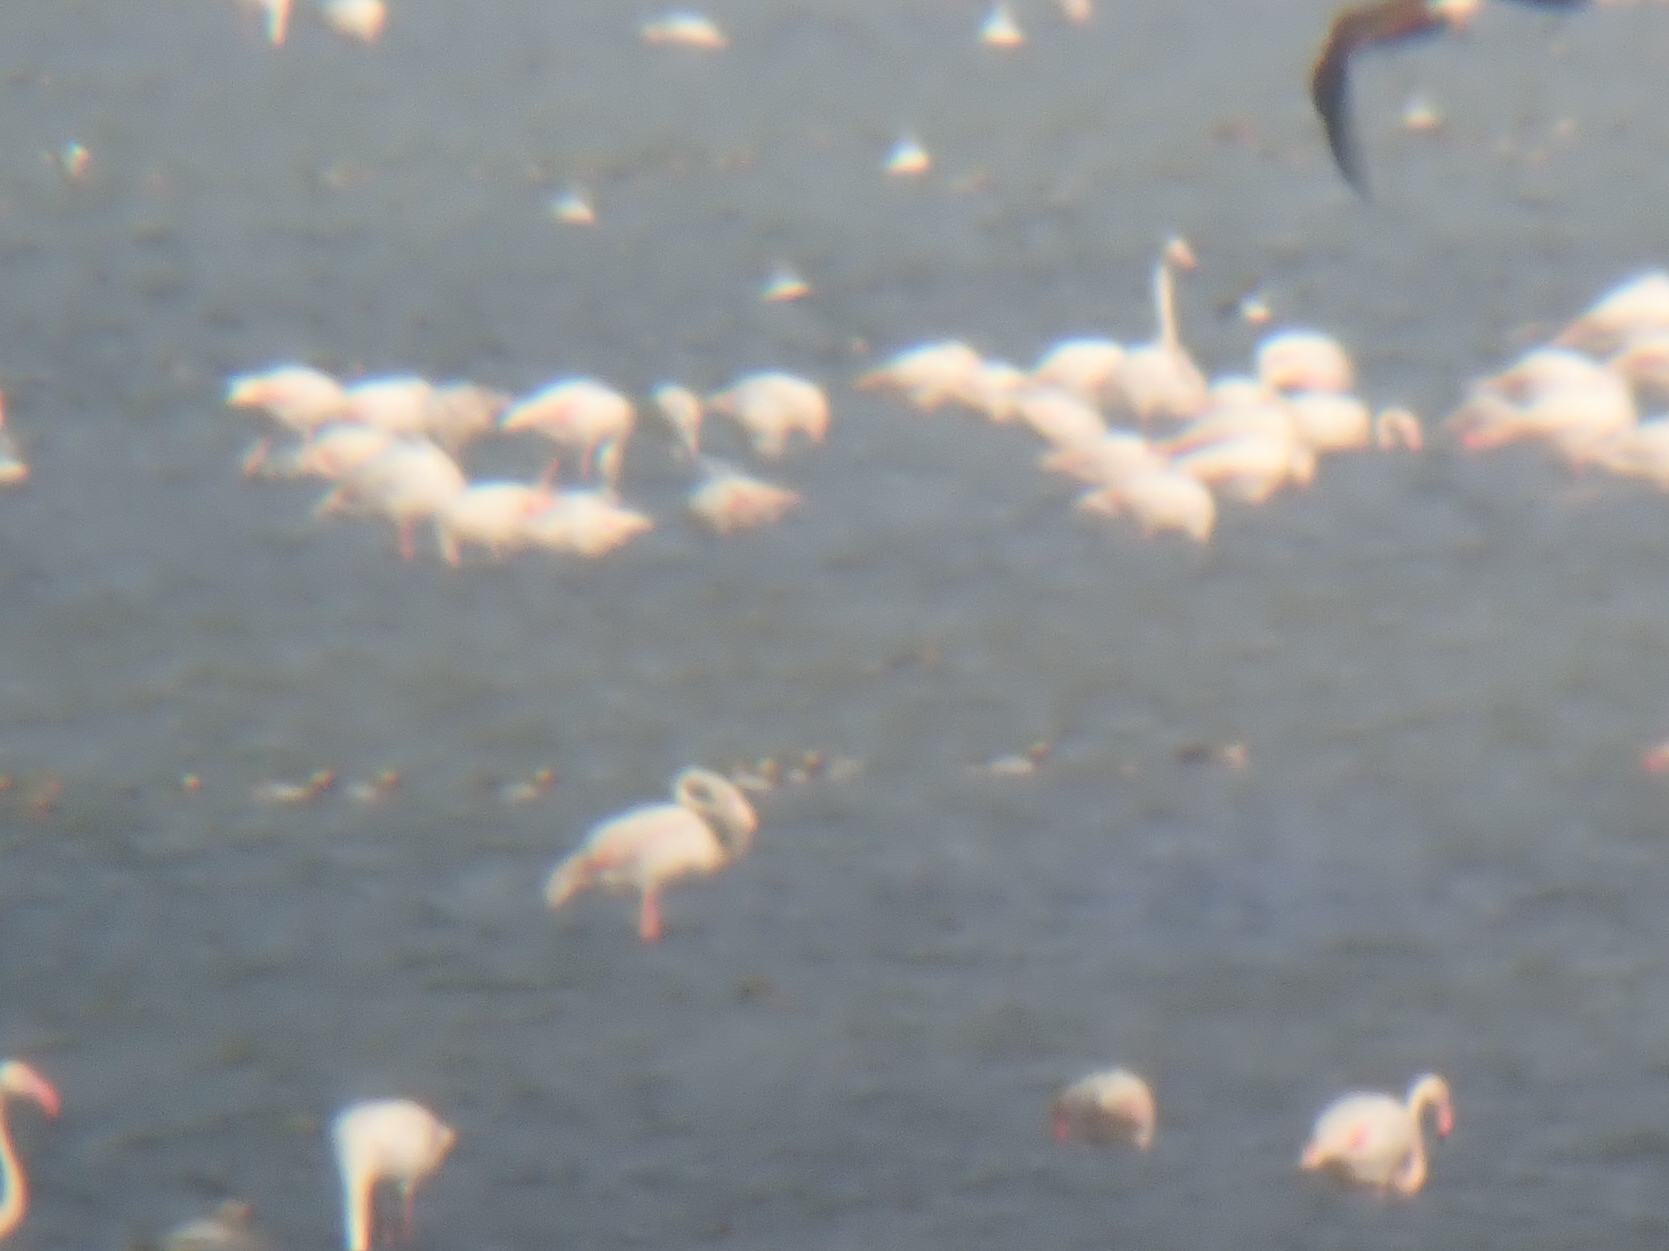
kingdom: Animalia
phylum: Chordata
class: Aves
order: Phoenicopteriformes
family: Phoenicopteridae
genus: Phoenicopterus
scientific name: Phoenicopterus roseus
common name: Greater flamingo
